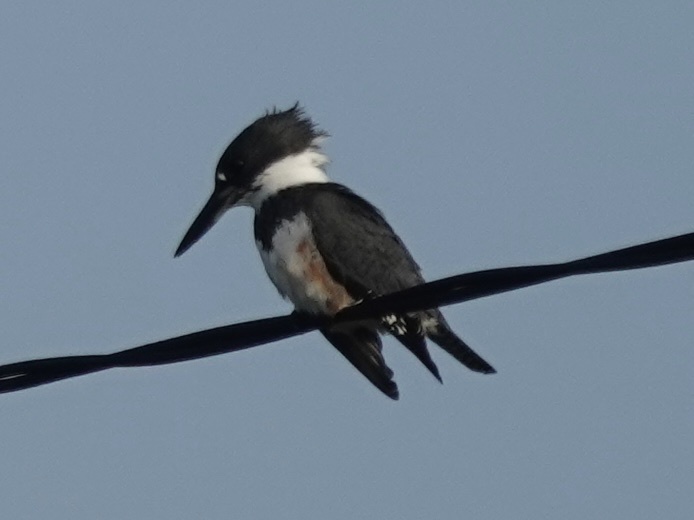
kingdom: Animalia
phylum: Chordata
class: Aves
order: Coraciiformes
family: Alcedinidae
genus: Megaceryle
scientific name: Megaceryle alcyon
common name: Belted kingfisher
